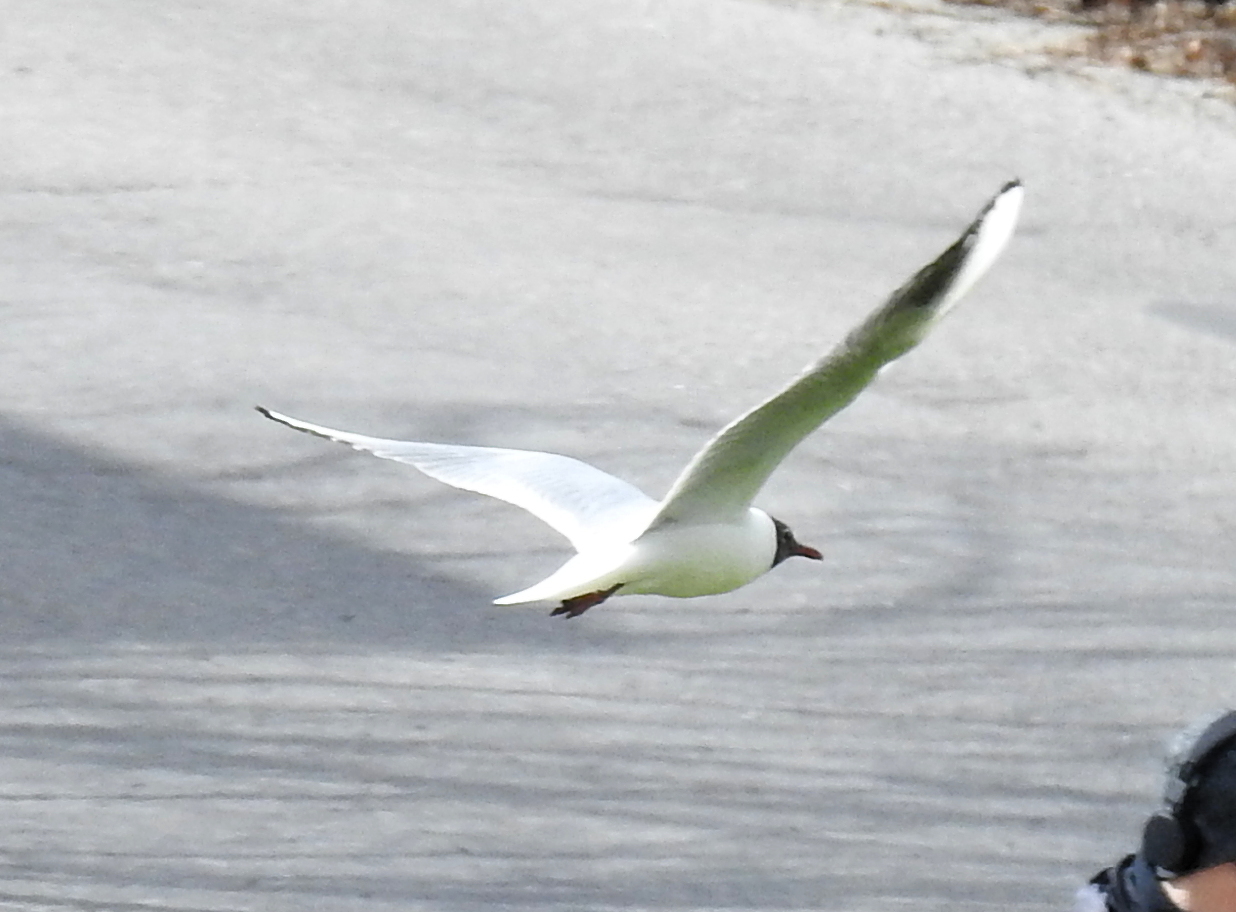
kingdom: Animalia
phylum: Chordata
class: Aves
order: Charadriiformes
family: Laridae
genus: Chroicocephalus
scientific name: Chroicocephalus ridibundus
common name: Black-headed gull
